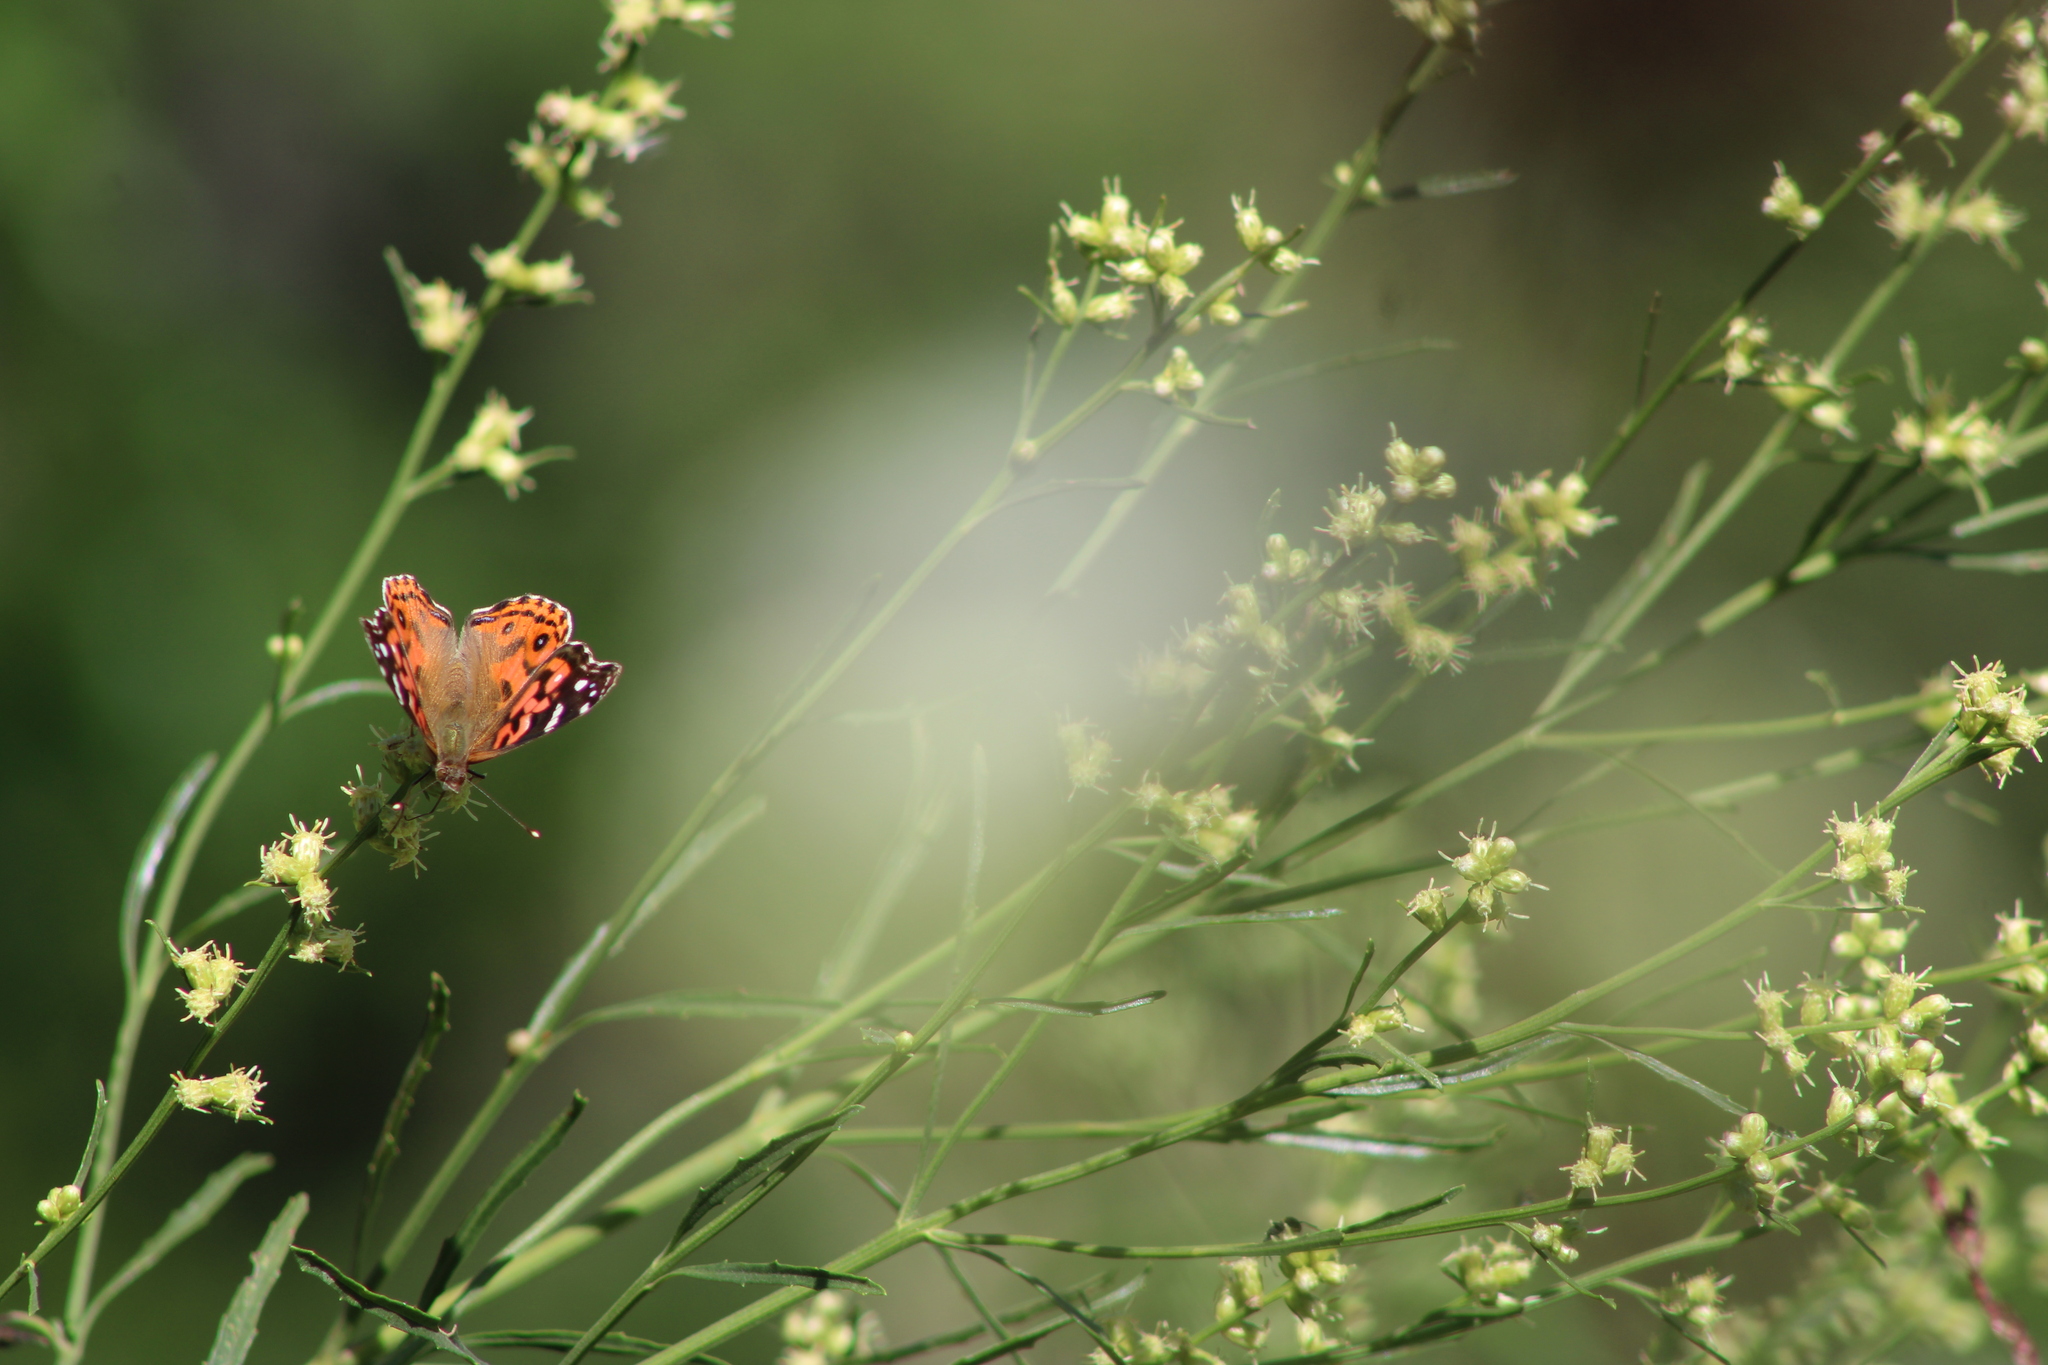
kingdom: Animalia
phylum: Arthropoda
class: Insecta
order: Lepidoptera
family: Nymphalidae
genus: Vanessa
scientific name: Vanessa braziliensis
